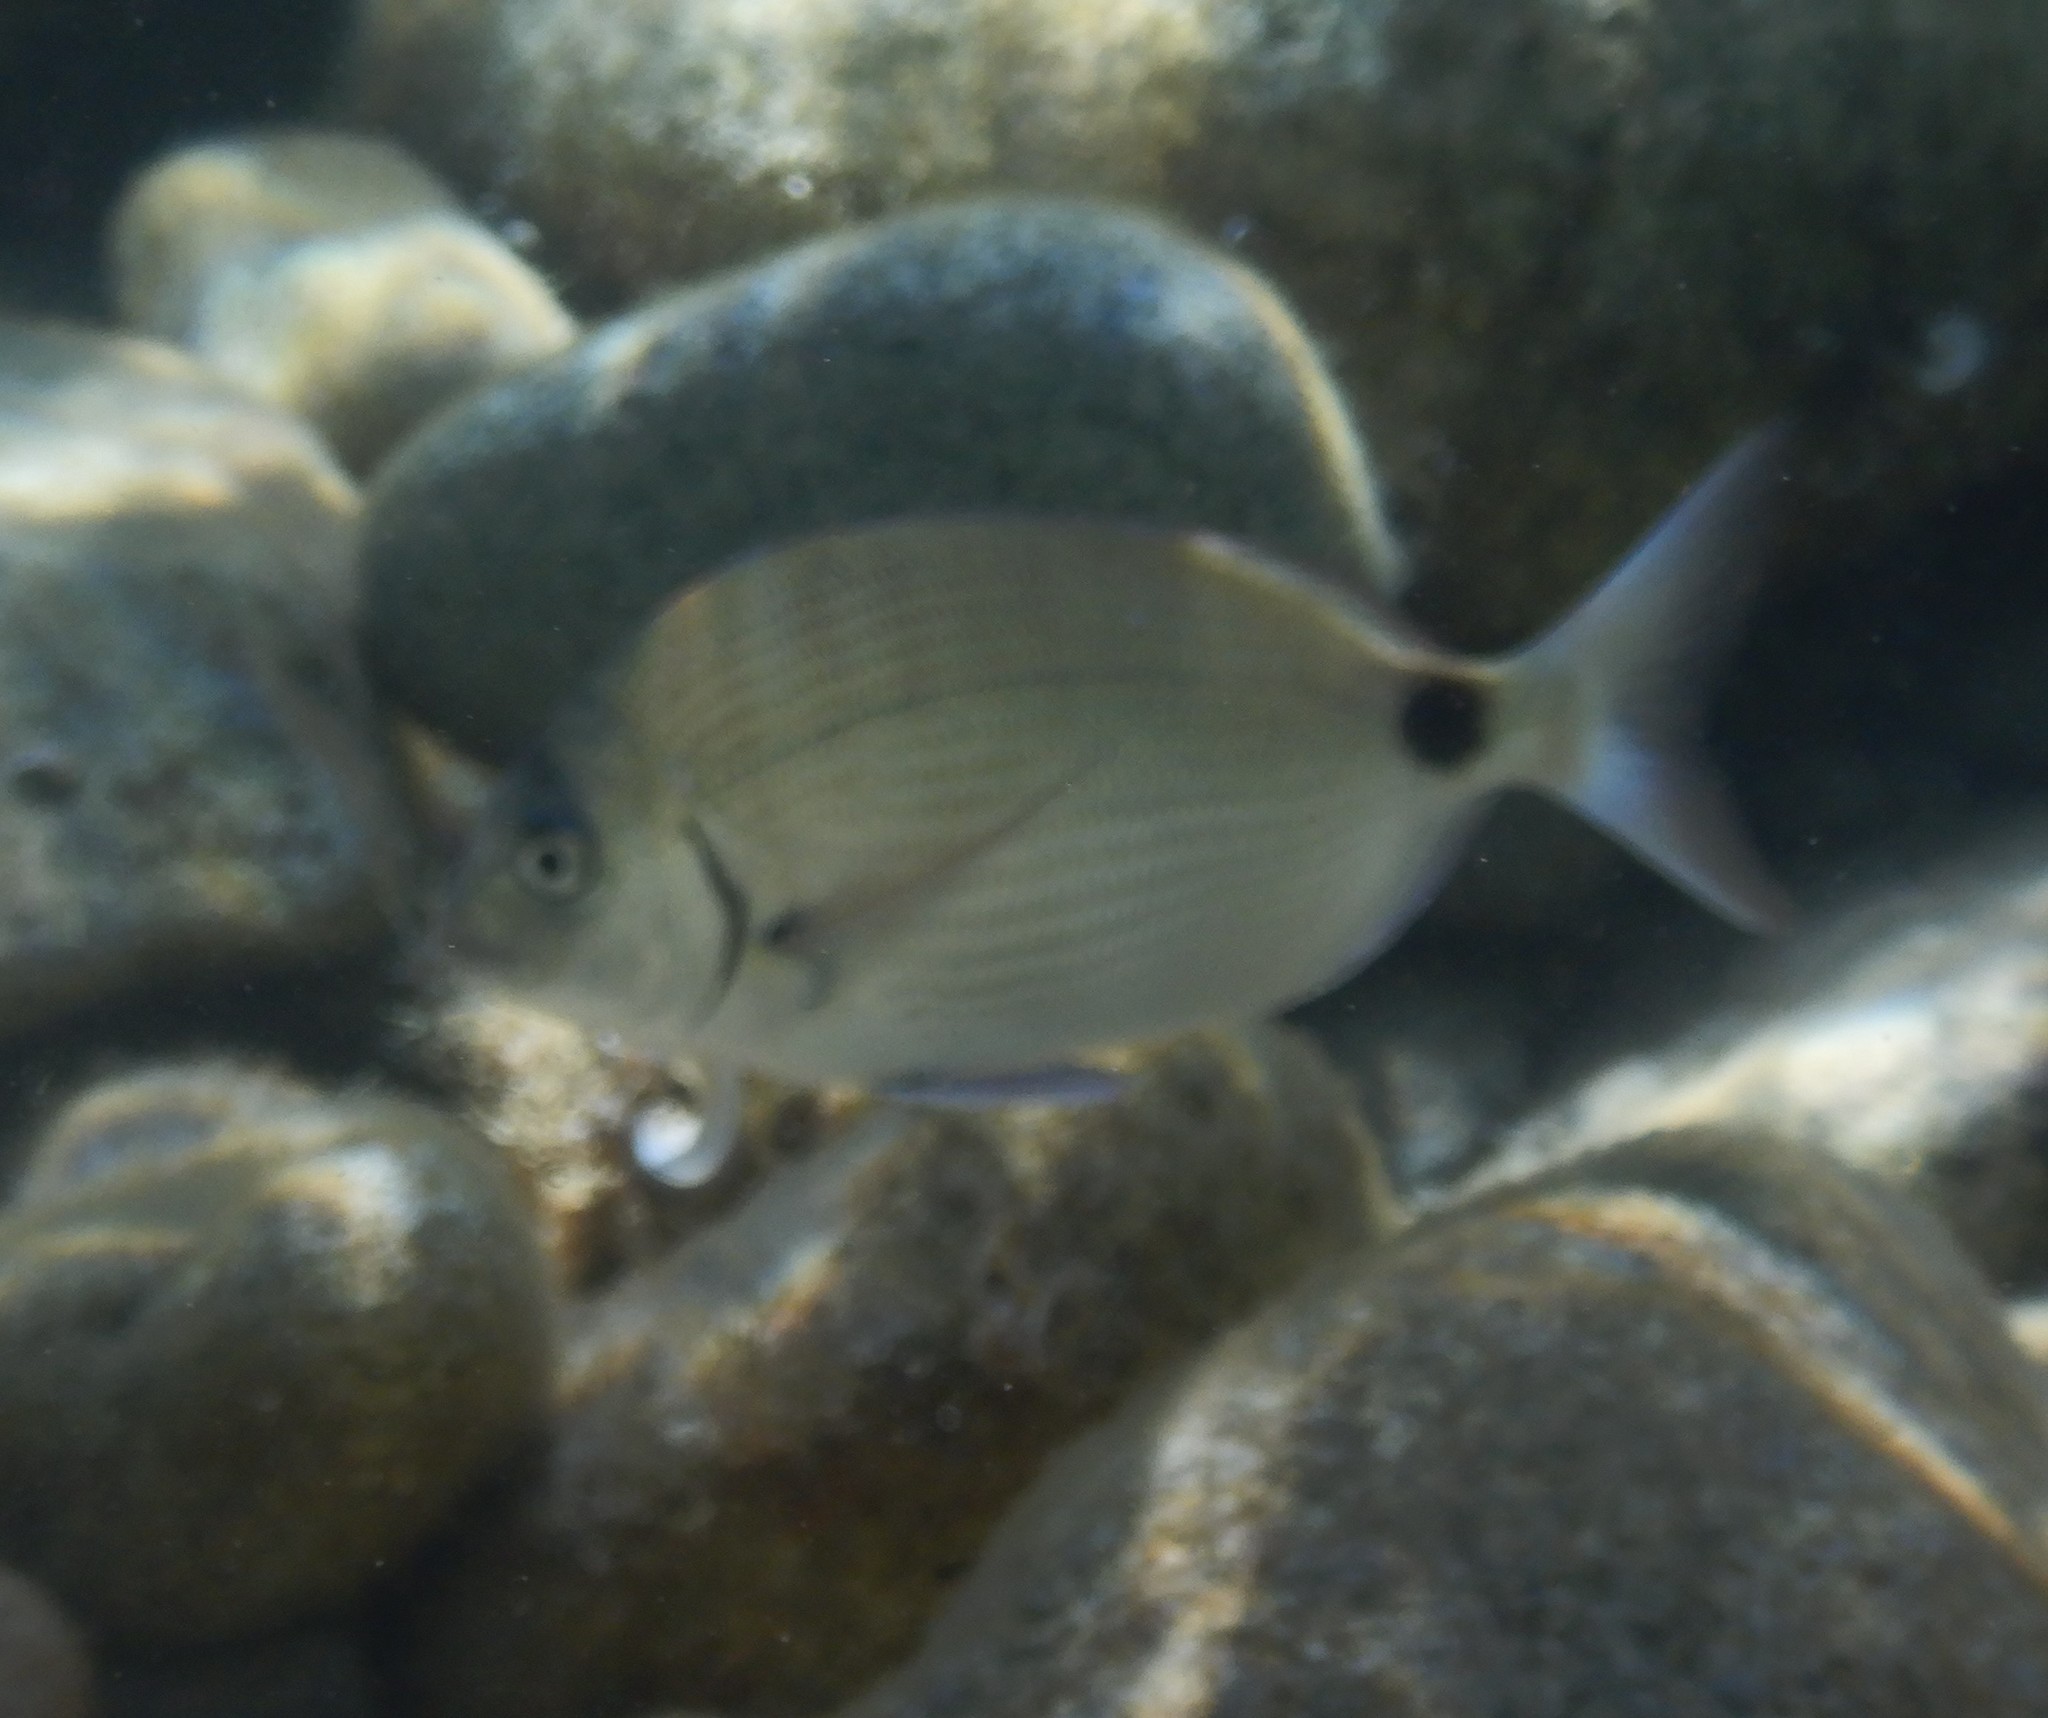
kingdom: Animalia
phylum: Chordata
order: Perciformes
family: Sparidae
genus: Diplodus
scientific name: Diplodus sargus
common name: White seabream
